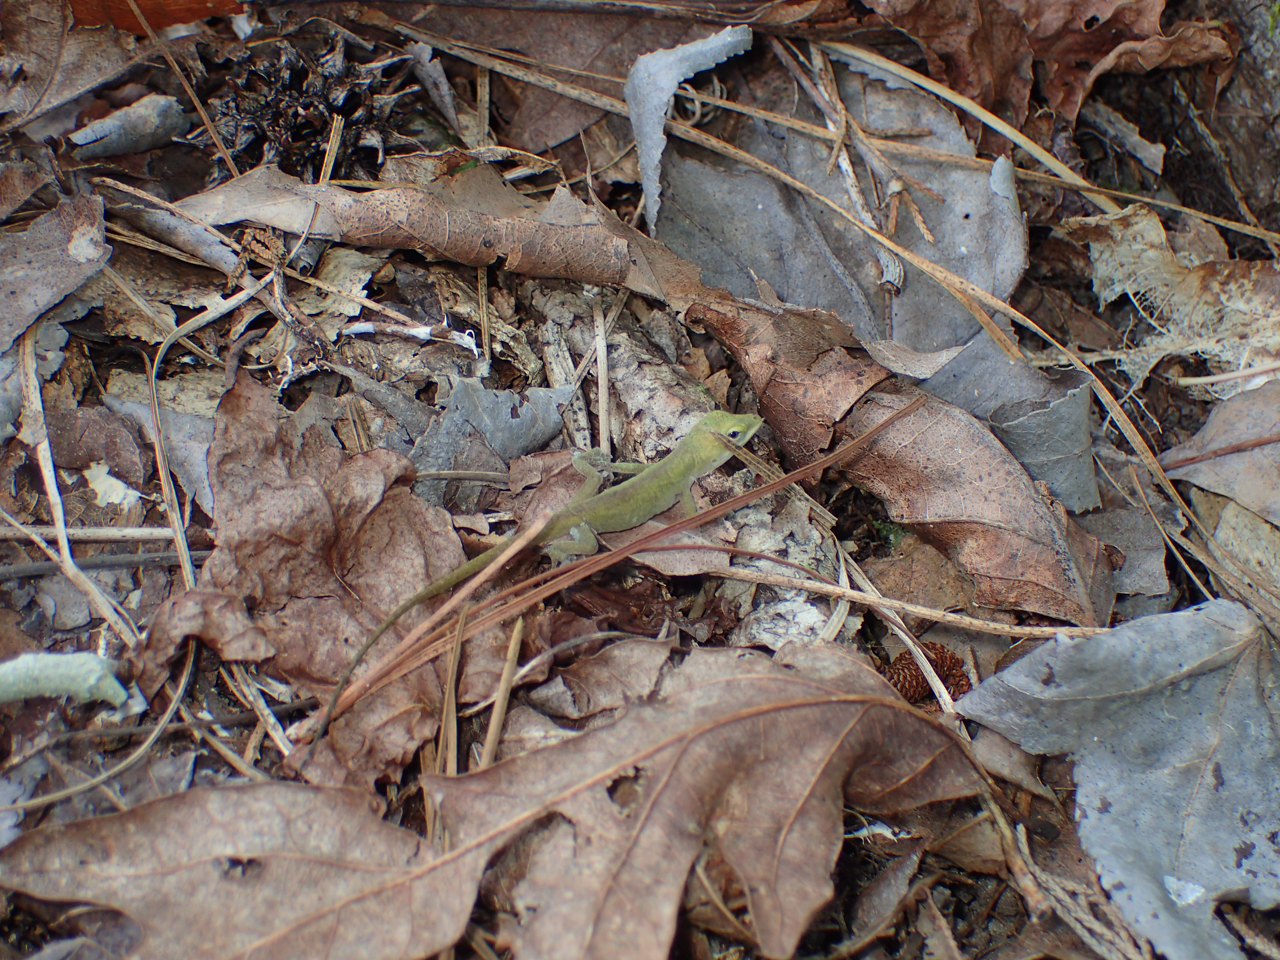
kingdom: Animalia
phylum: Chordata
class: Squamata
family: Dactyloidae
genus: Anolis
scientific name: Anolis carolinensis
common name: Green anole
